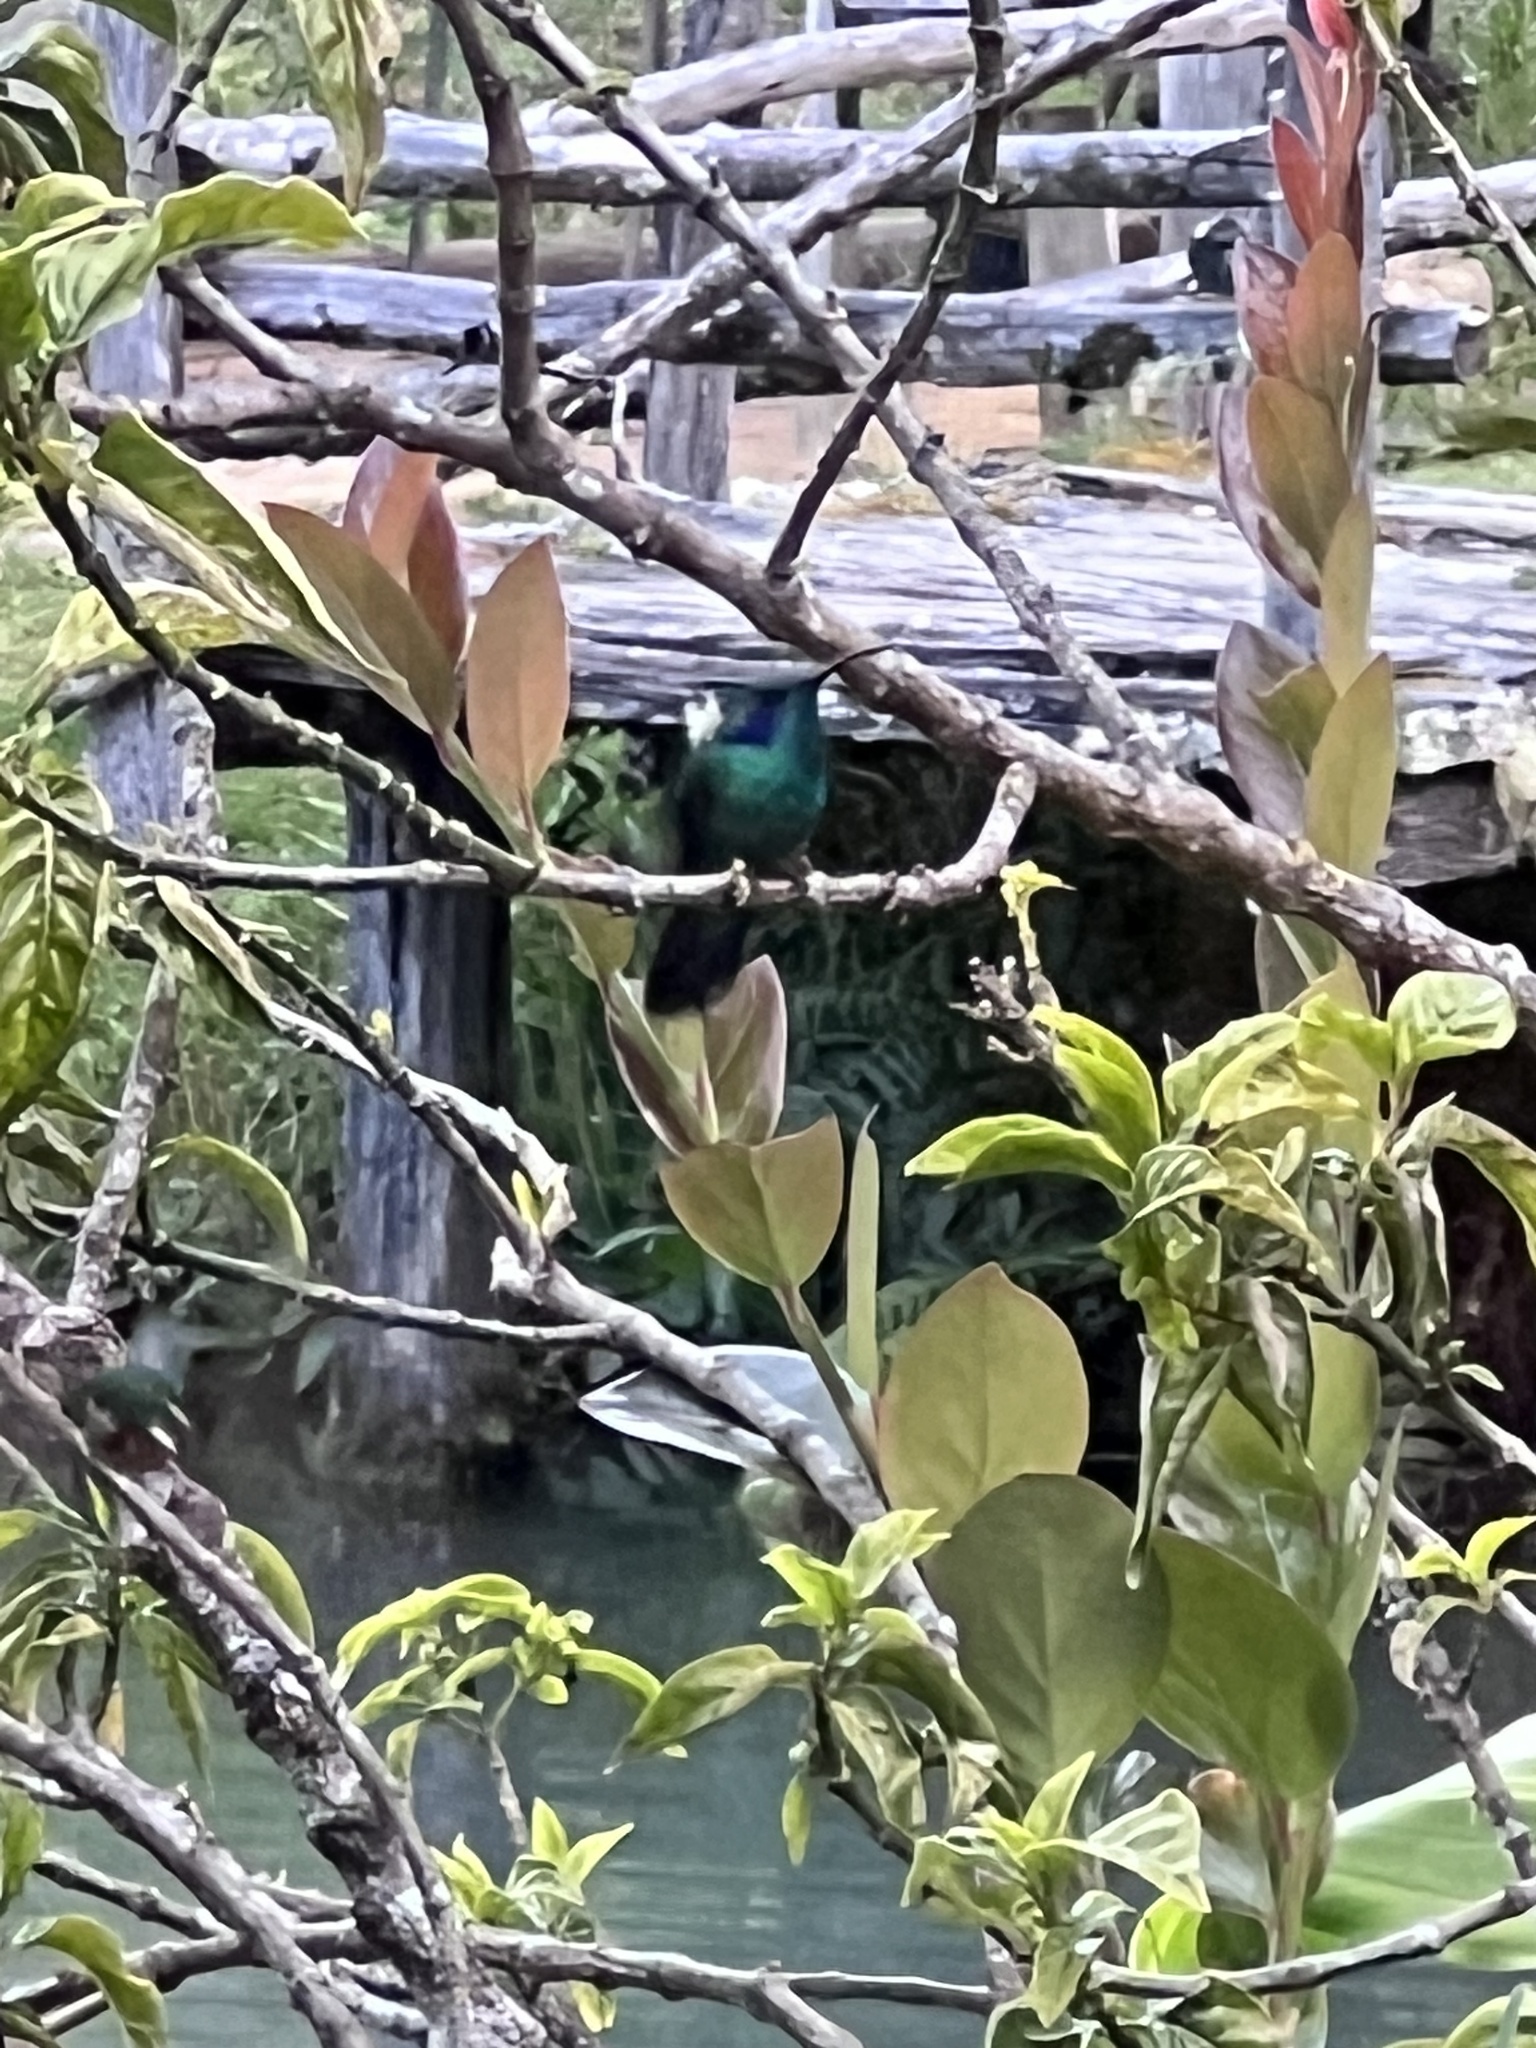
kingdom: Animalia
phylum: Chordata
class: Aves
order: Apodiformes
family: Trochilidae
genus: Colibri
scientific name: Colibri cyanotus
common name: Lesser violetear
